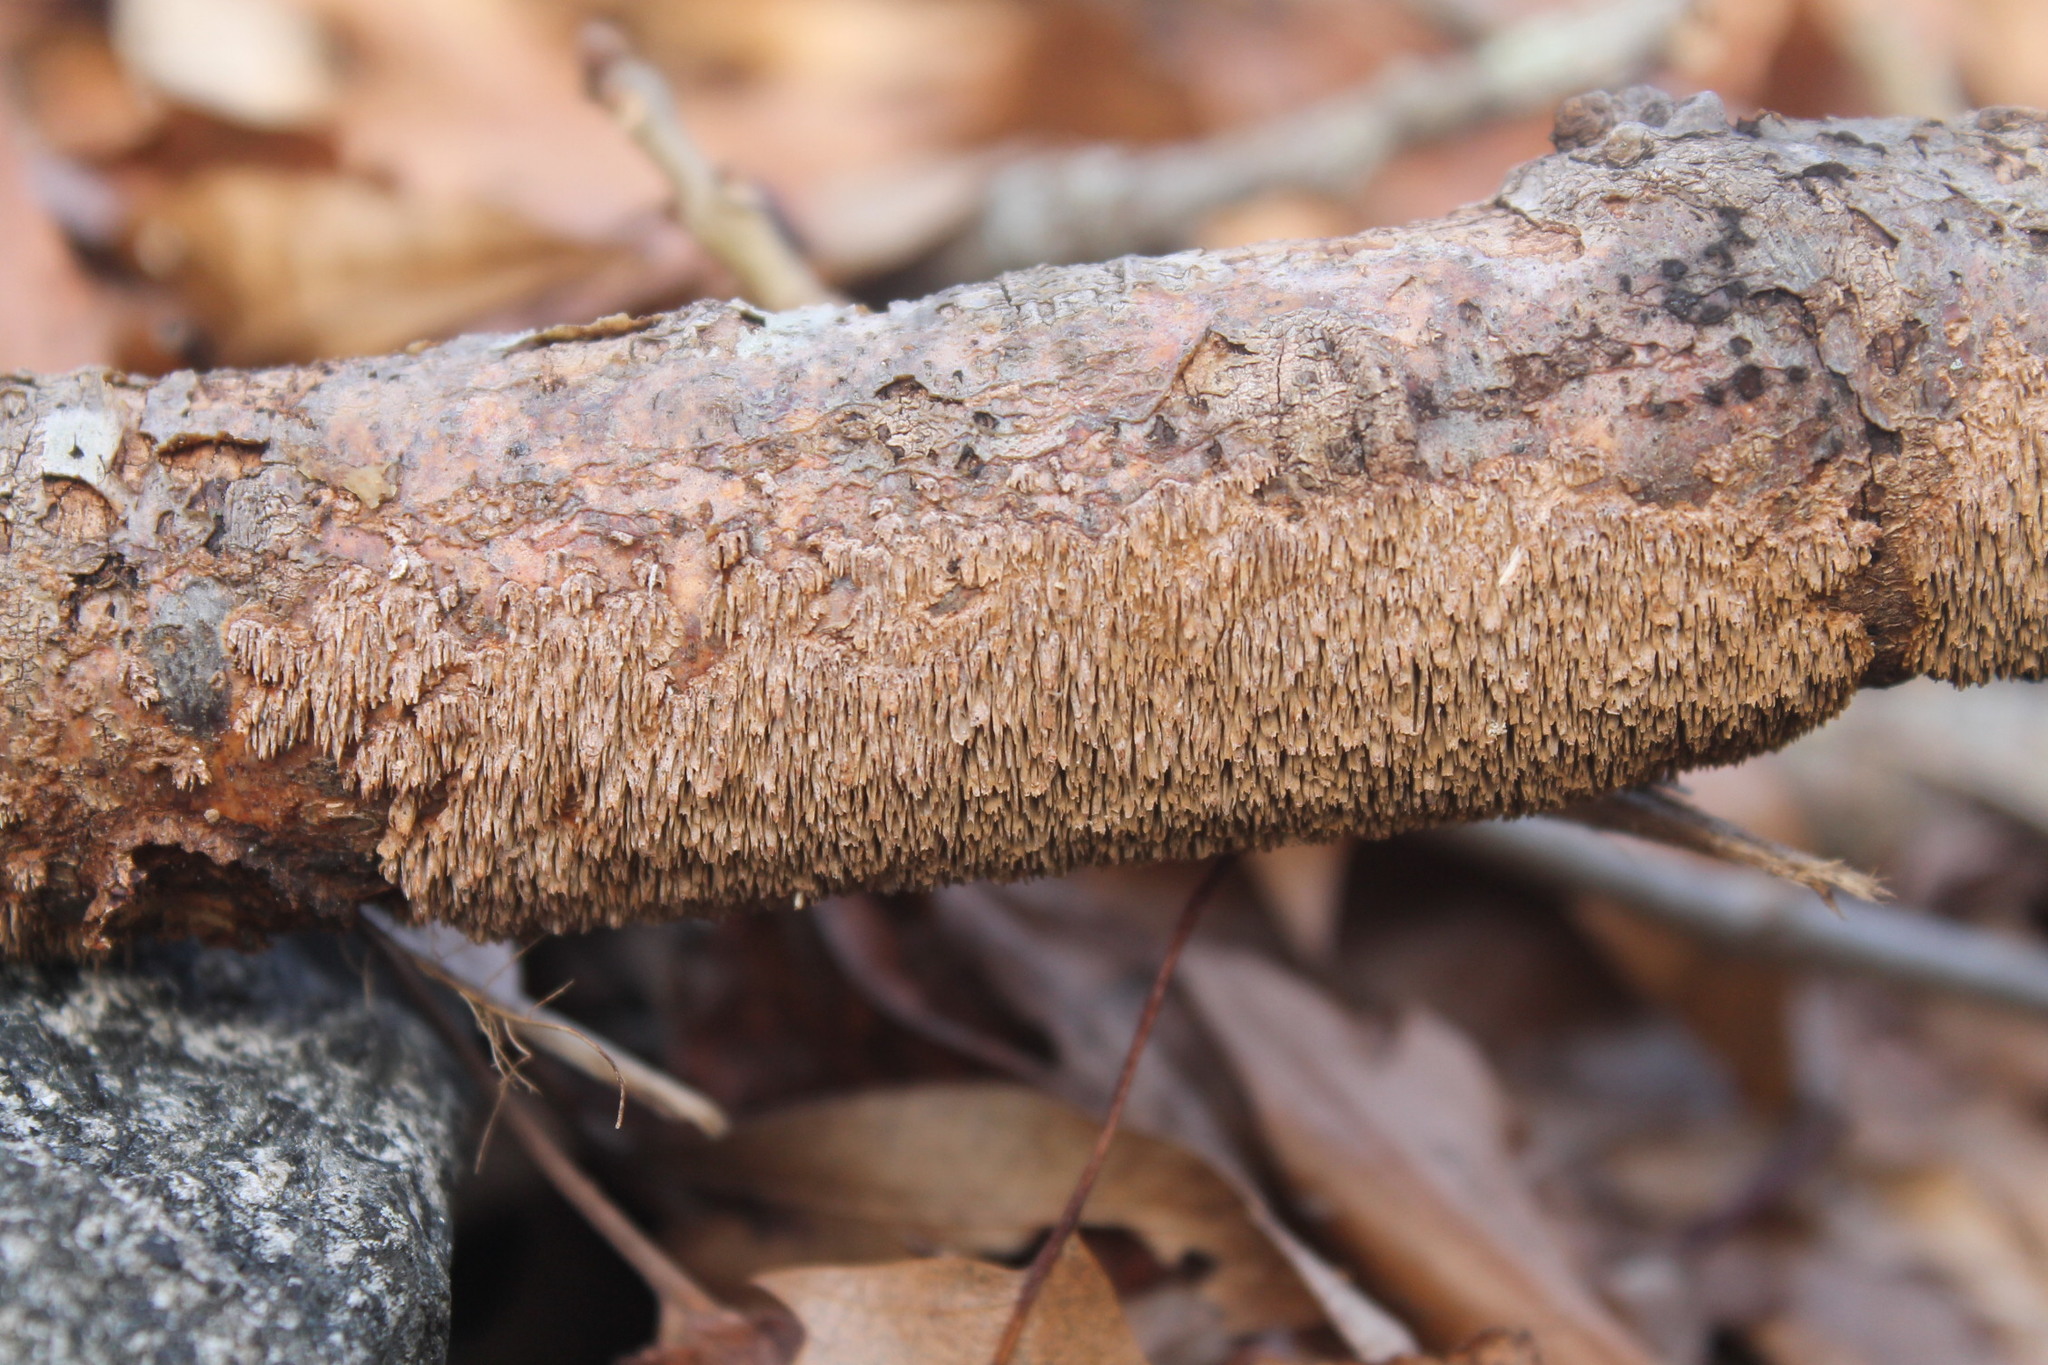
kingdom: Fungi
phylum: Basidiomycota
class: Agaricomycetes
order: Hymenochaetales
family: Hymenochaetaceae
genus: Hydnoporia
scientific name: Hydnoporia olivacea
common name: Brown-toothed crust fungus
